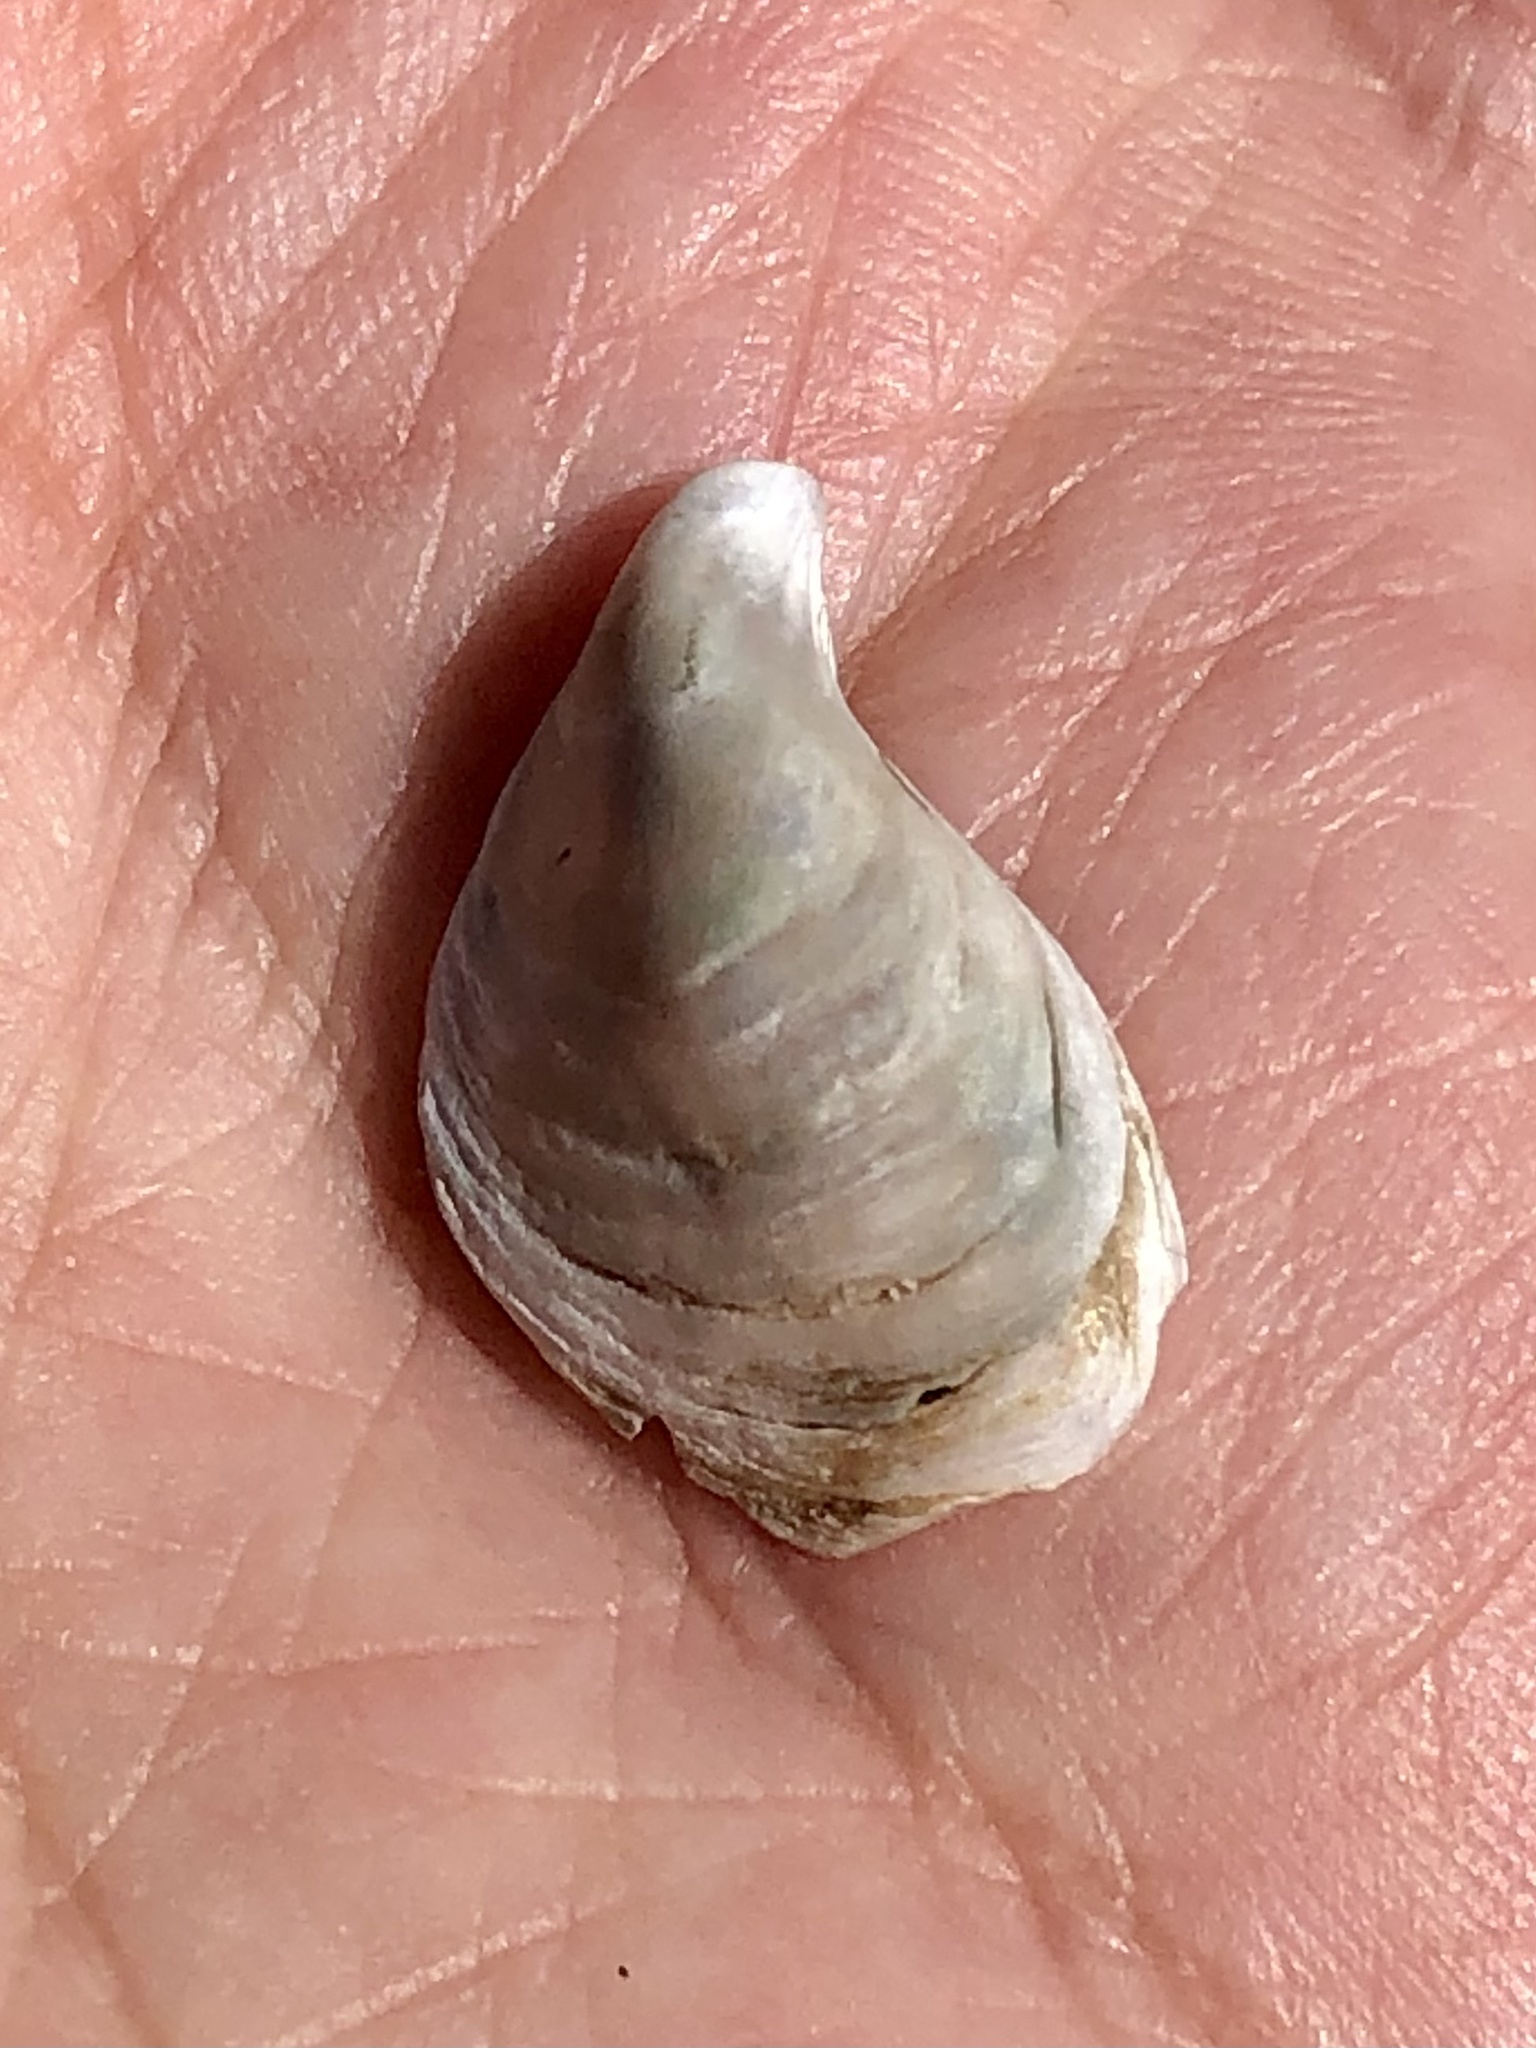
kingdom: Animalia
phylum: Mollusca
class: Bivalvia
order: Myida
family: Dreissenidae
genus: Dreissena
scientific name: Dreissena bugensis
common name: Quagga mussel
